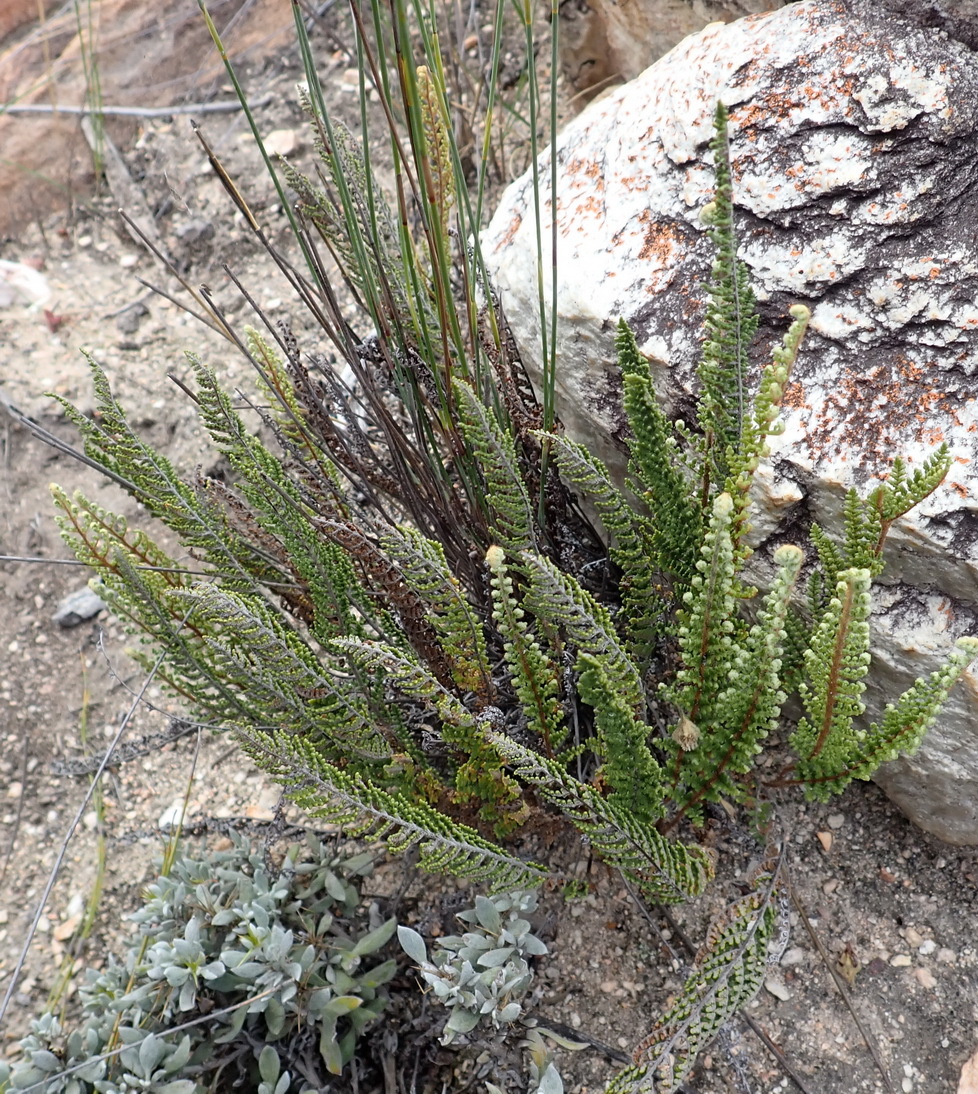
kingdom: Plantae
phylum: Tracheophyta
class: Polypodiopsida
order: Polypodiales
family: Pteridaceae
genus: Cheilanthes
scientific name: Cheilanthes eckloniana
